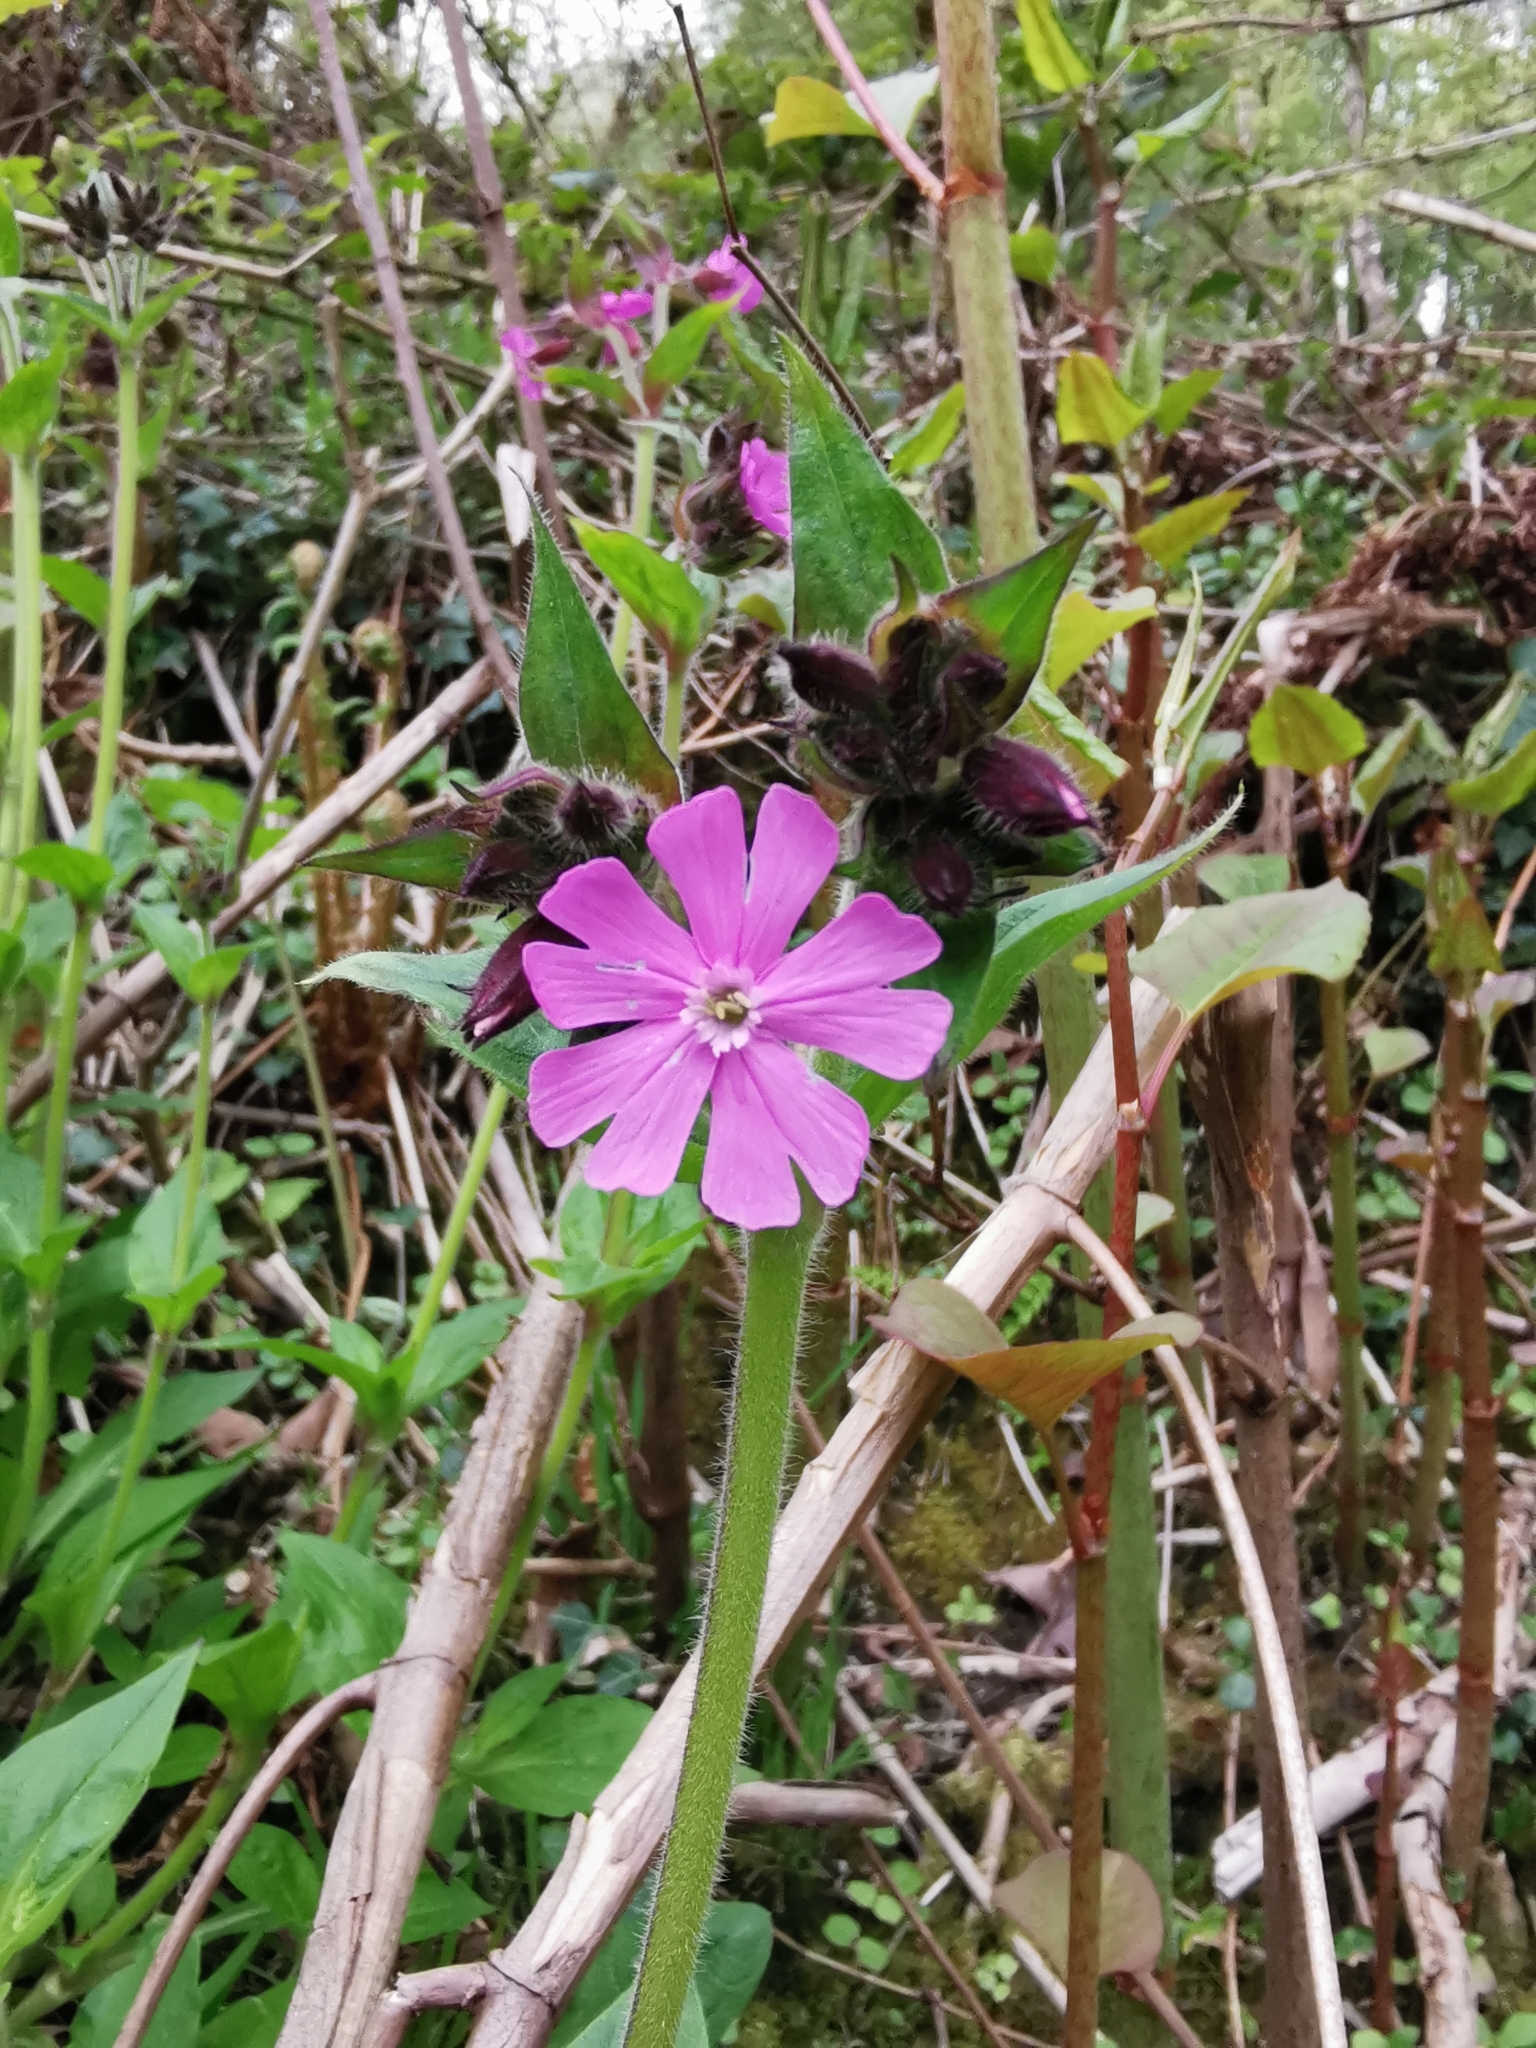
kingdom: Plantae
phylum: Tracheophyta
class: Magnoliopsida
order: Caryophyllales
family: Caryophyllaceae
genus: Silene
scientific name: Silene dioica
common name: Red campion
